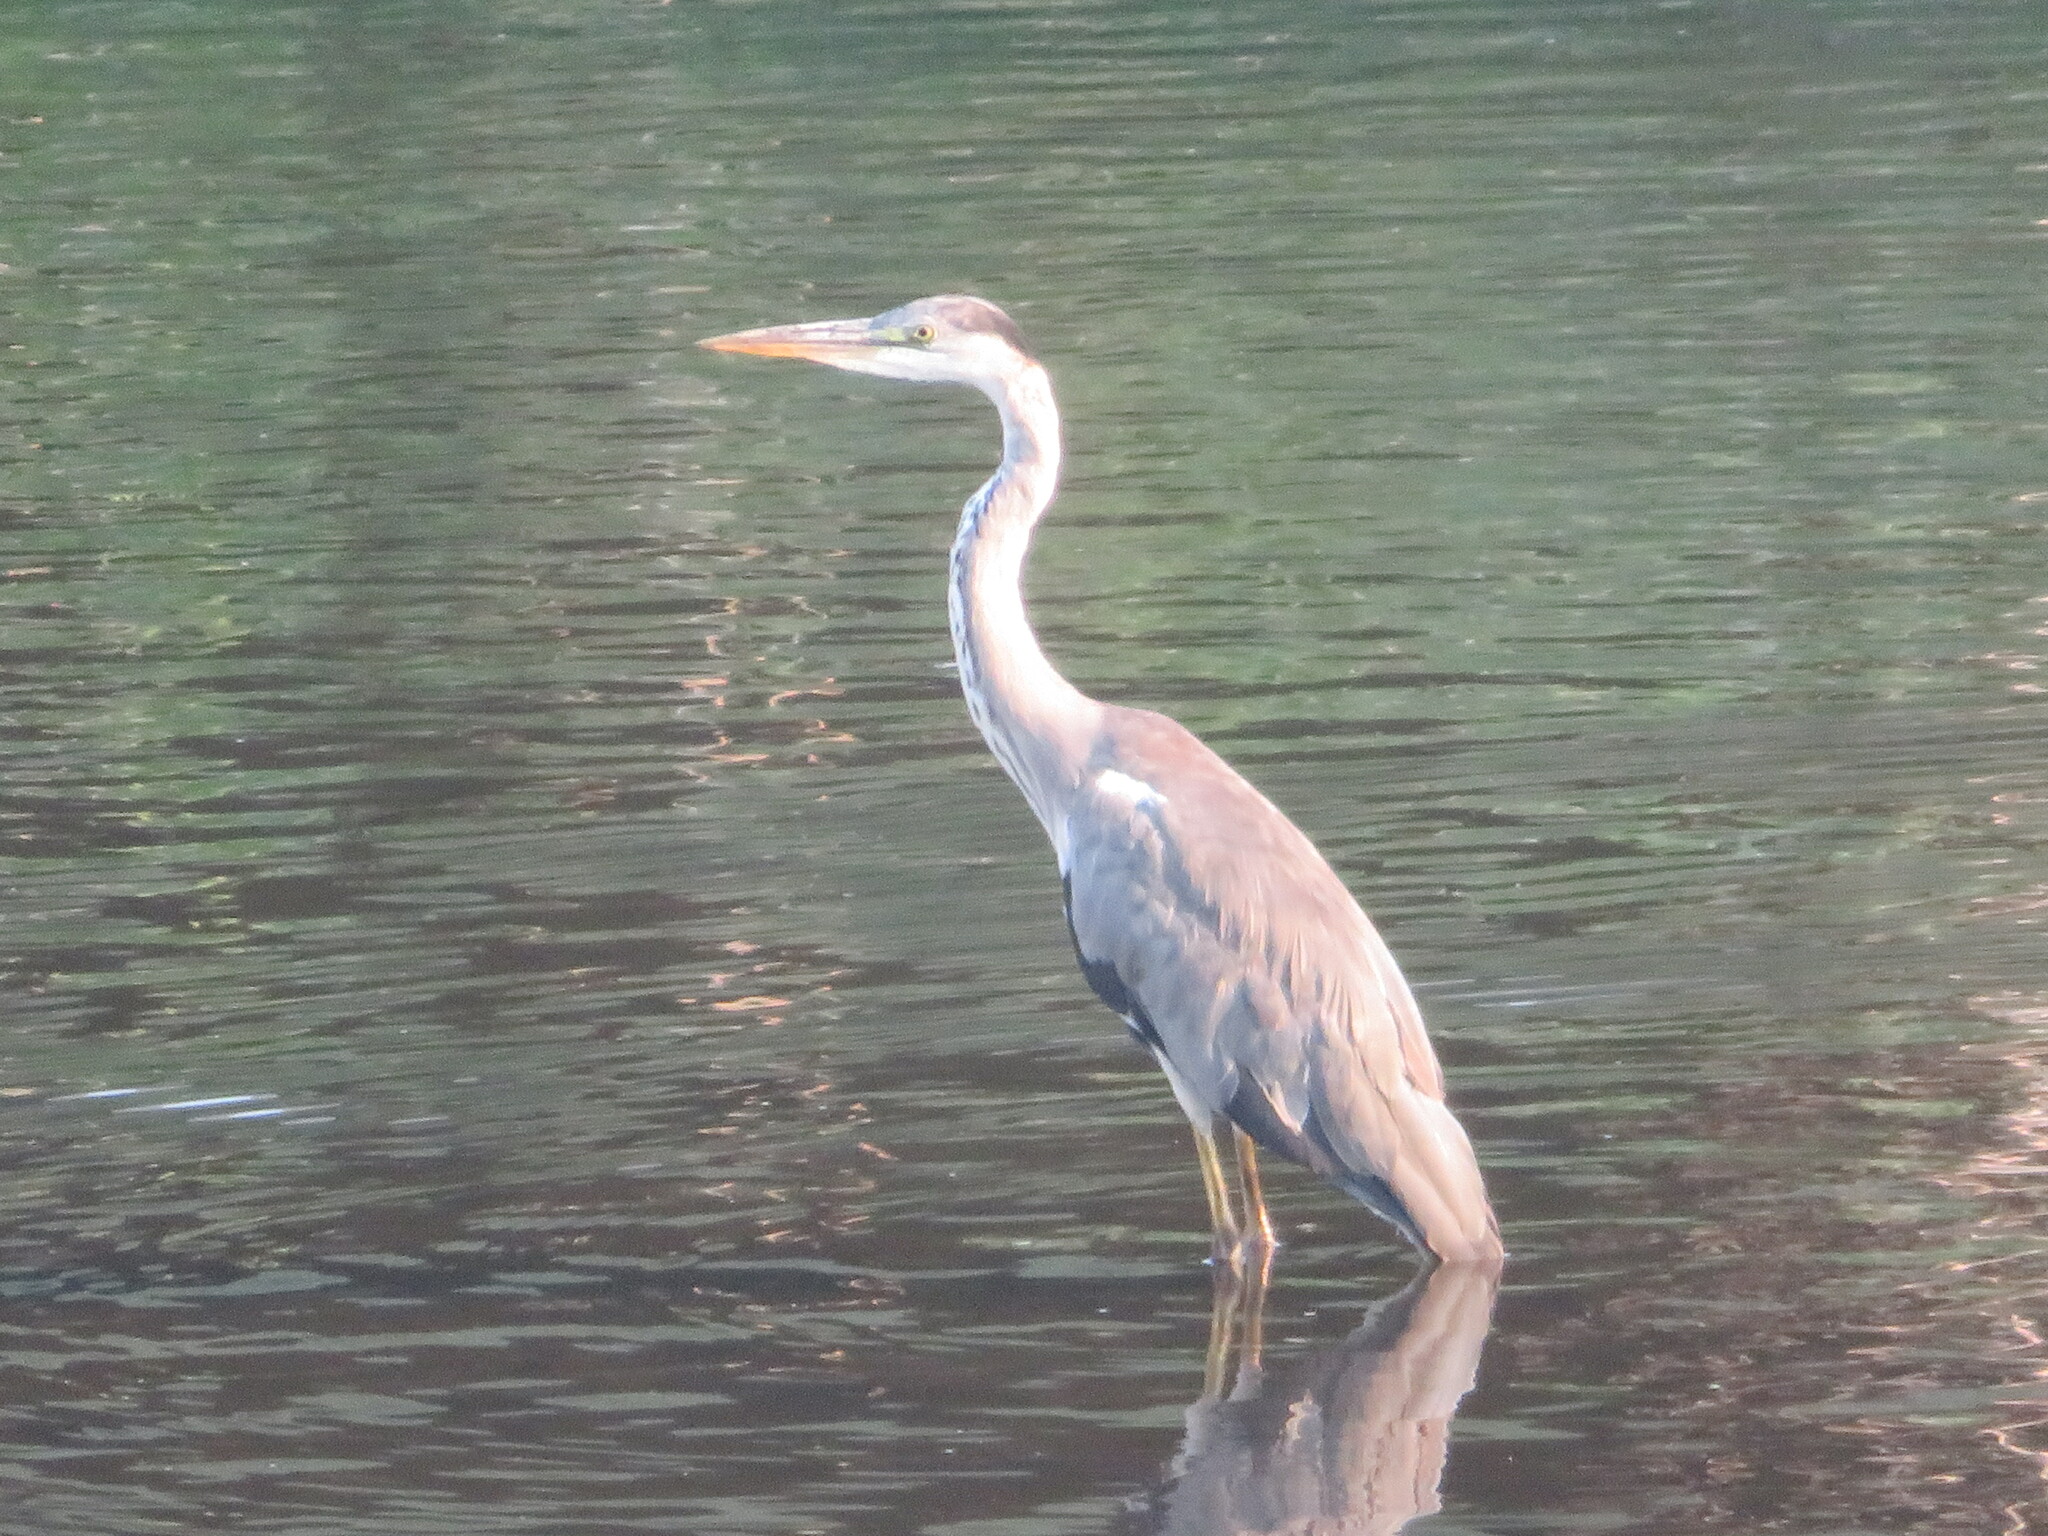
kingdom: Animalia
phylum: Chordata
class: Aves
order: Pelecaniformes
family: Ardeidae
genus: Ardea
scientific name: Ardea cinerea
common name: Grey heron
